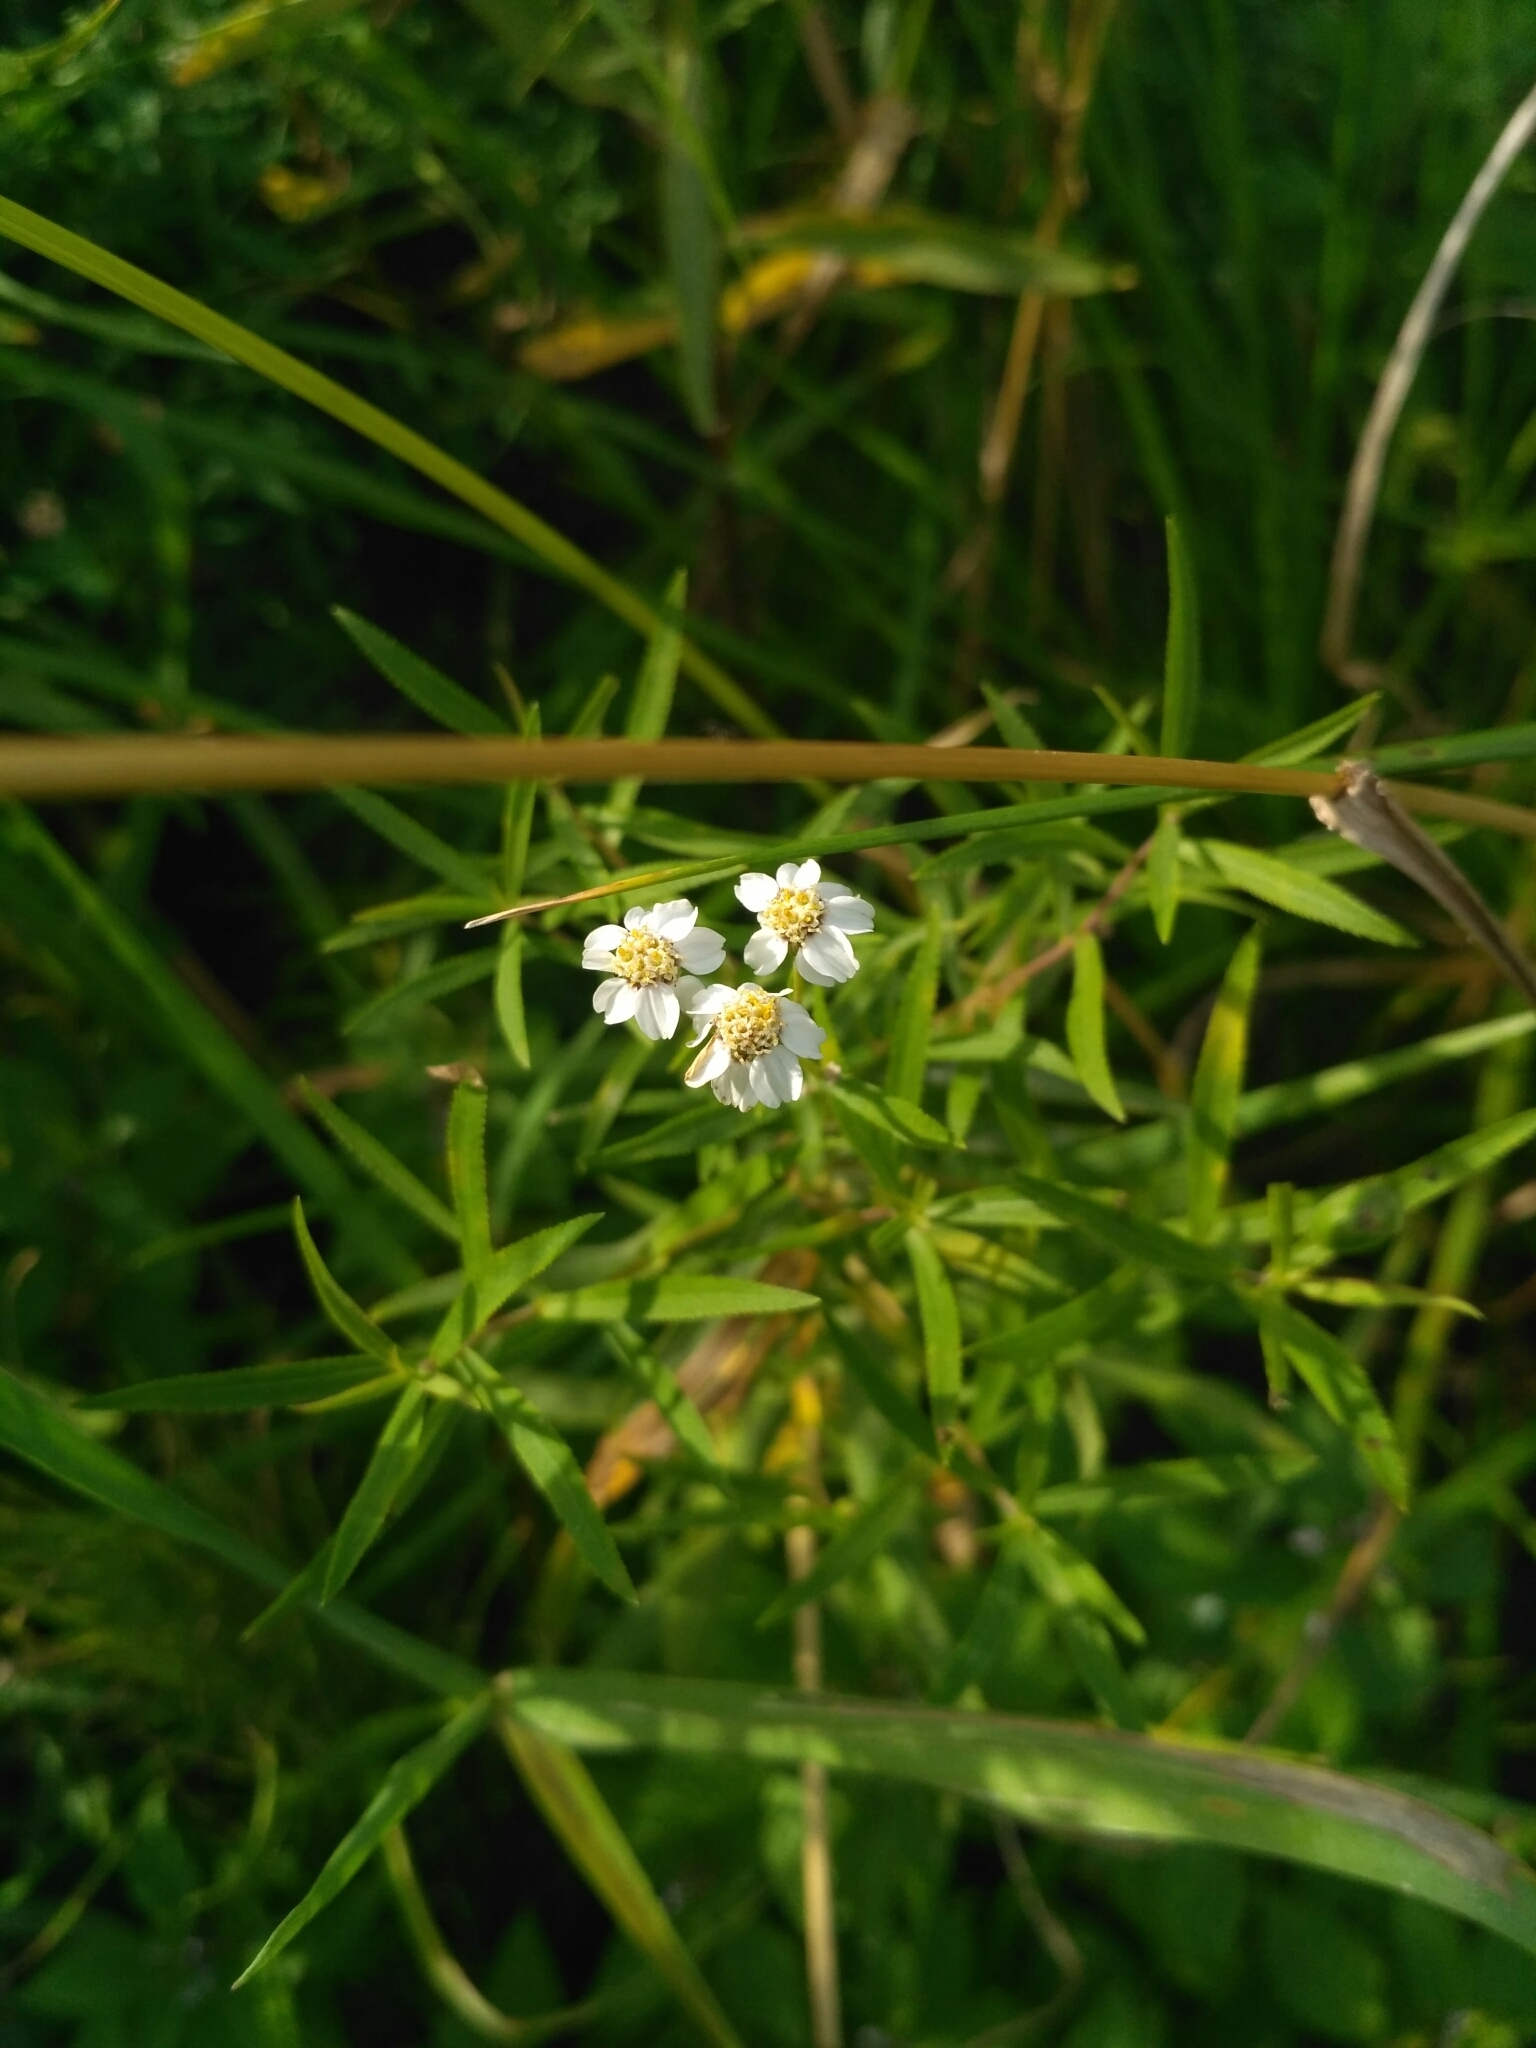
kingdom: Plantae
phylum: Tracheophyta
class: Magnoliopsida
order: Asterales
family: Asteraceae
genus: Achillea
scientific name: Achillea salicifolia
